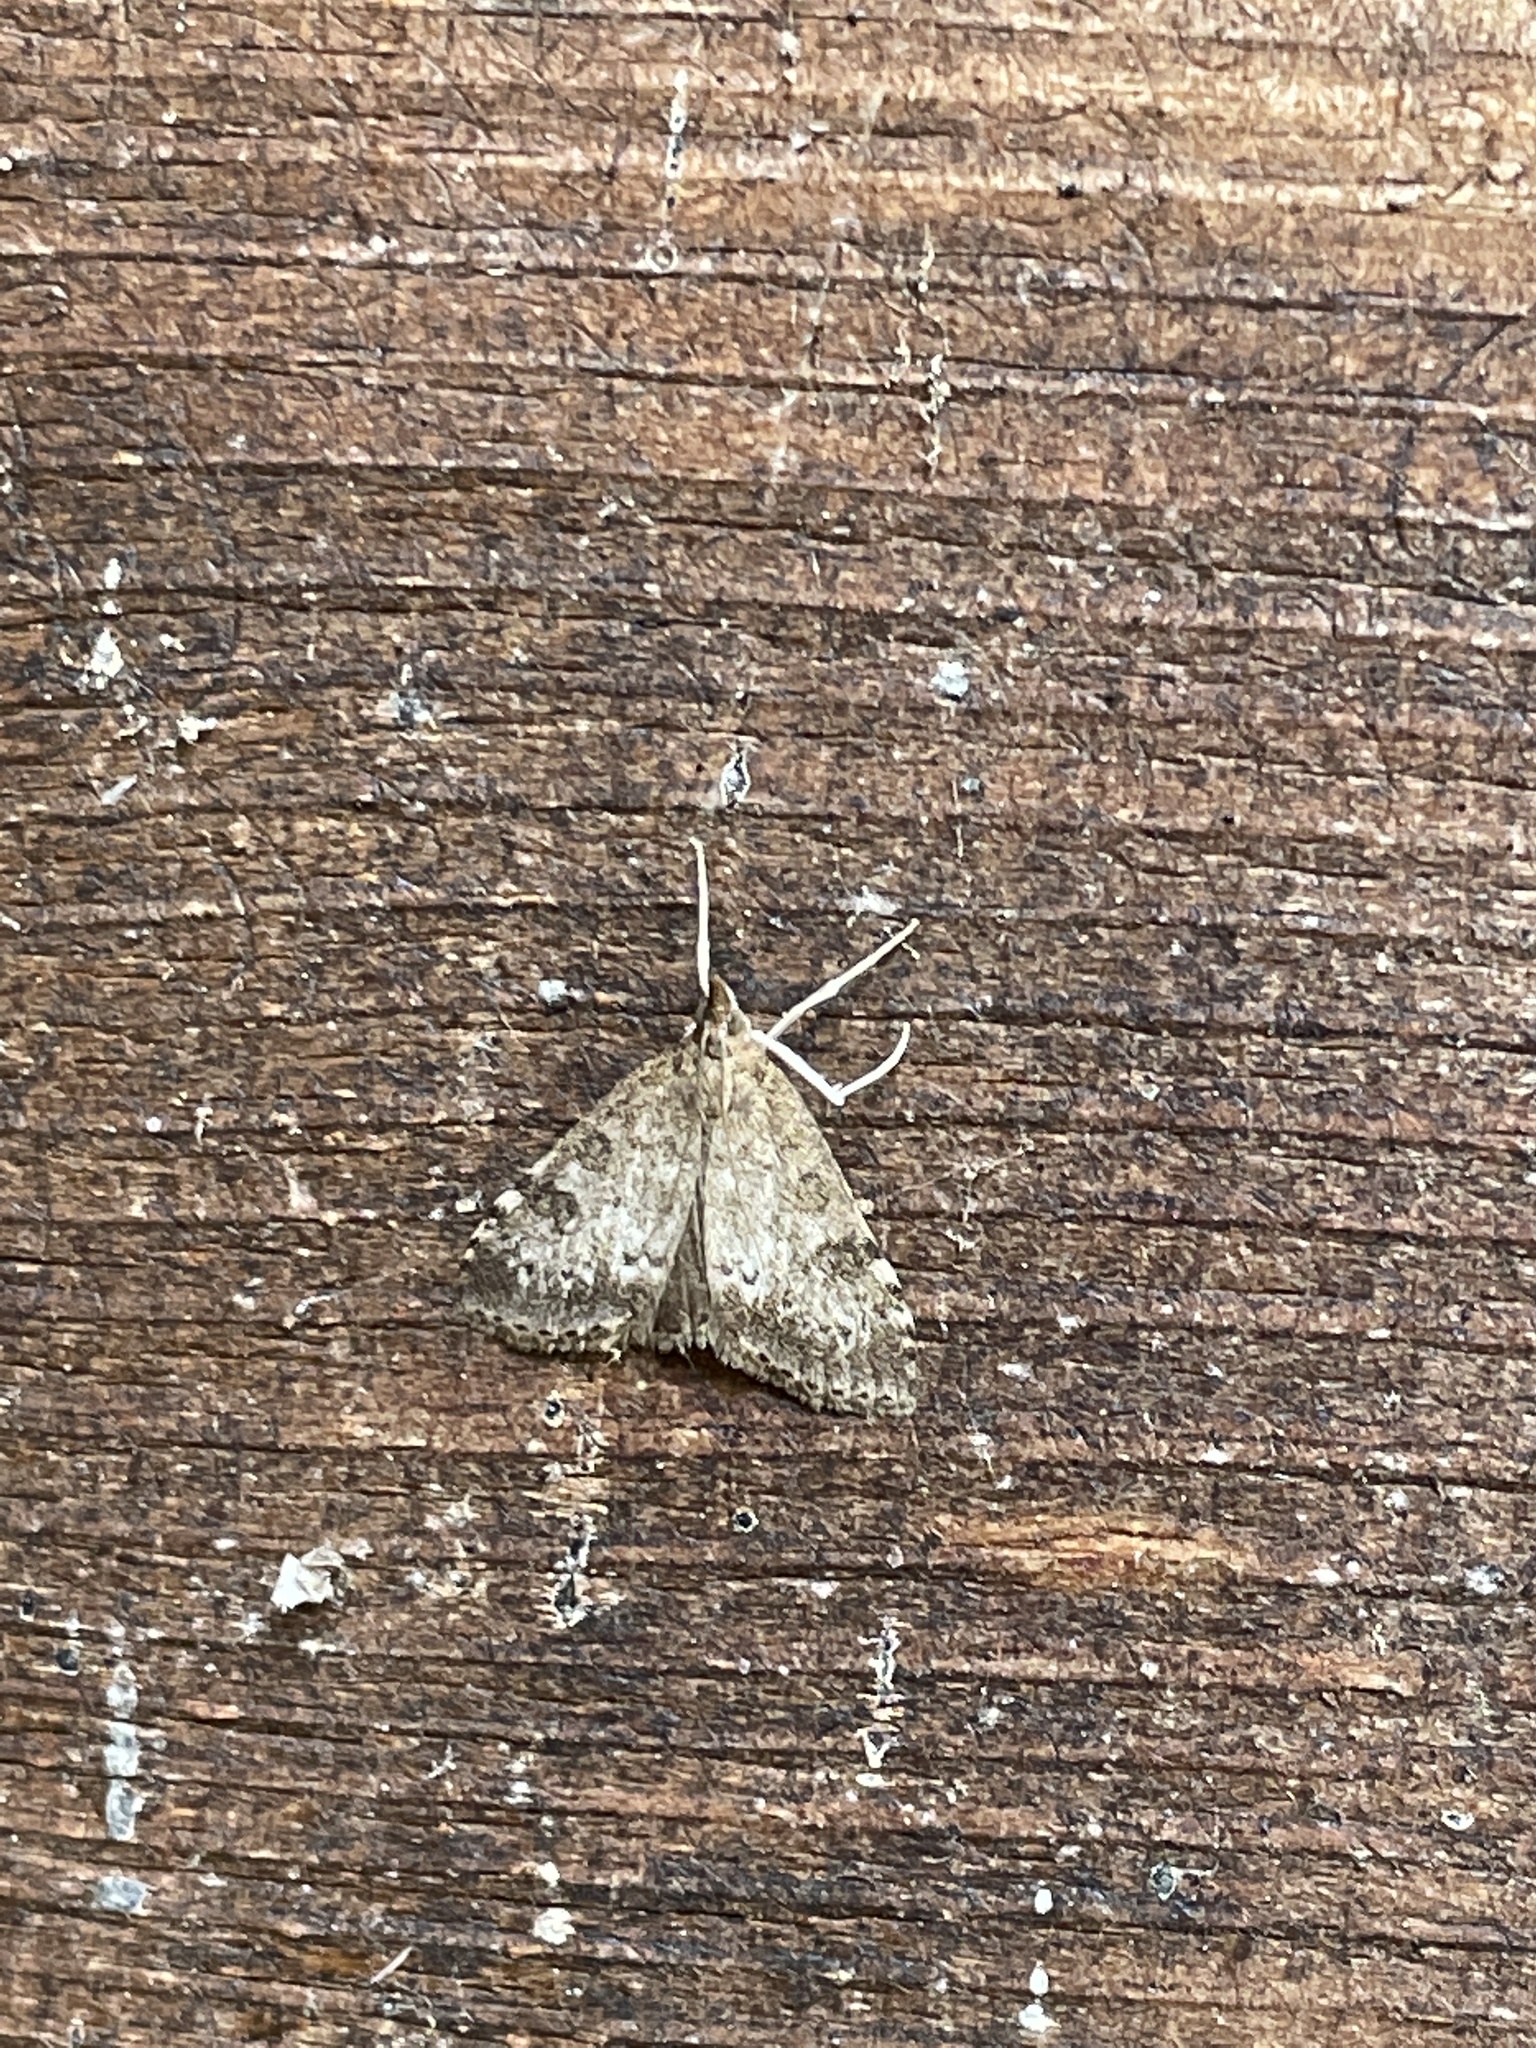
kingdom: Animalia
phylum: Arthropoda
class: Insecta
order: Lepidoptera
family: Crambidae
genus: Udea
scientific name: Udea inquinatalis
